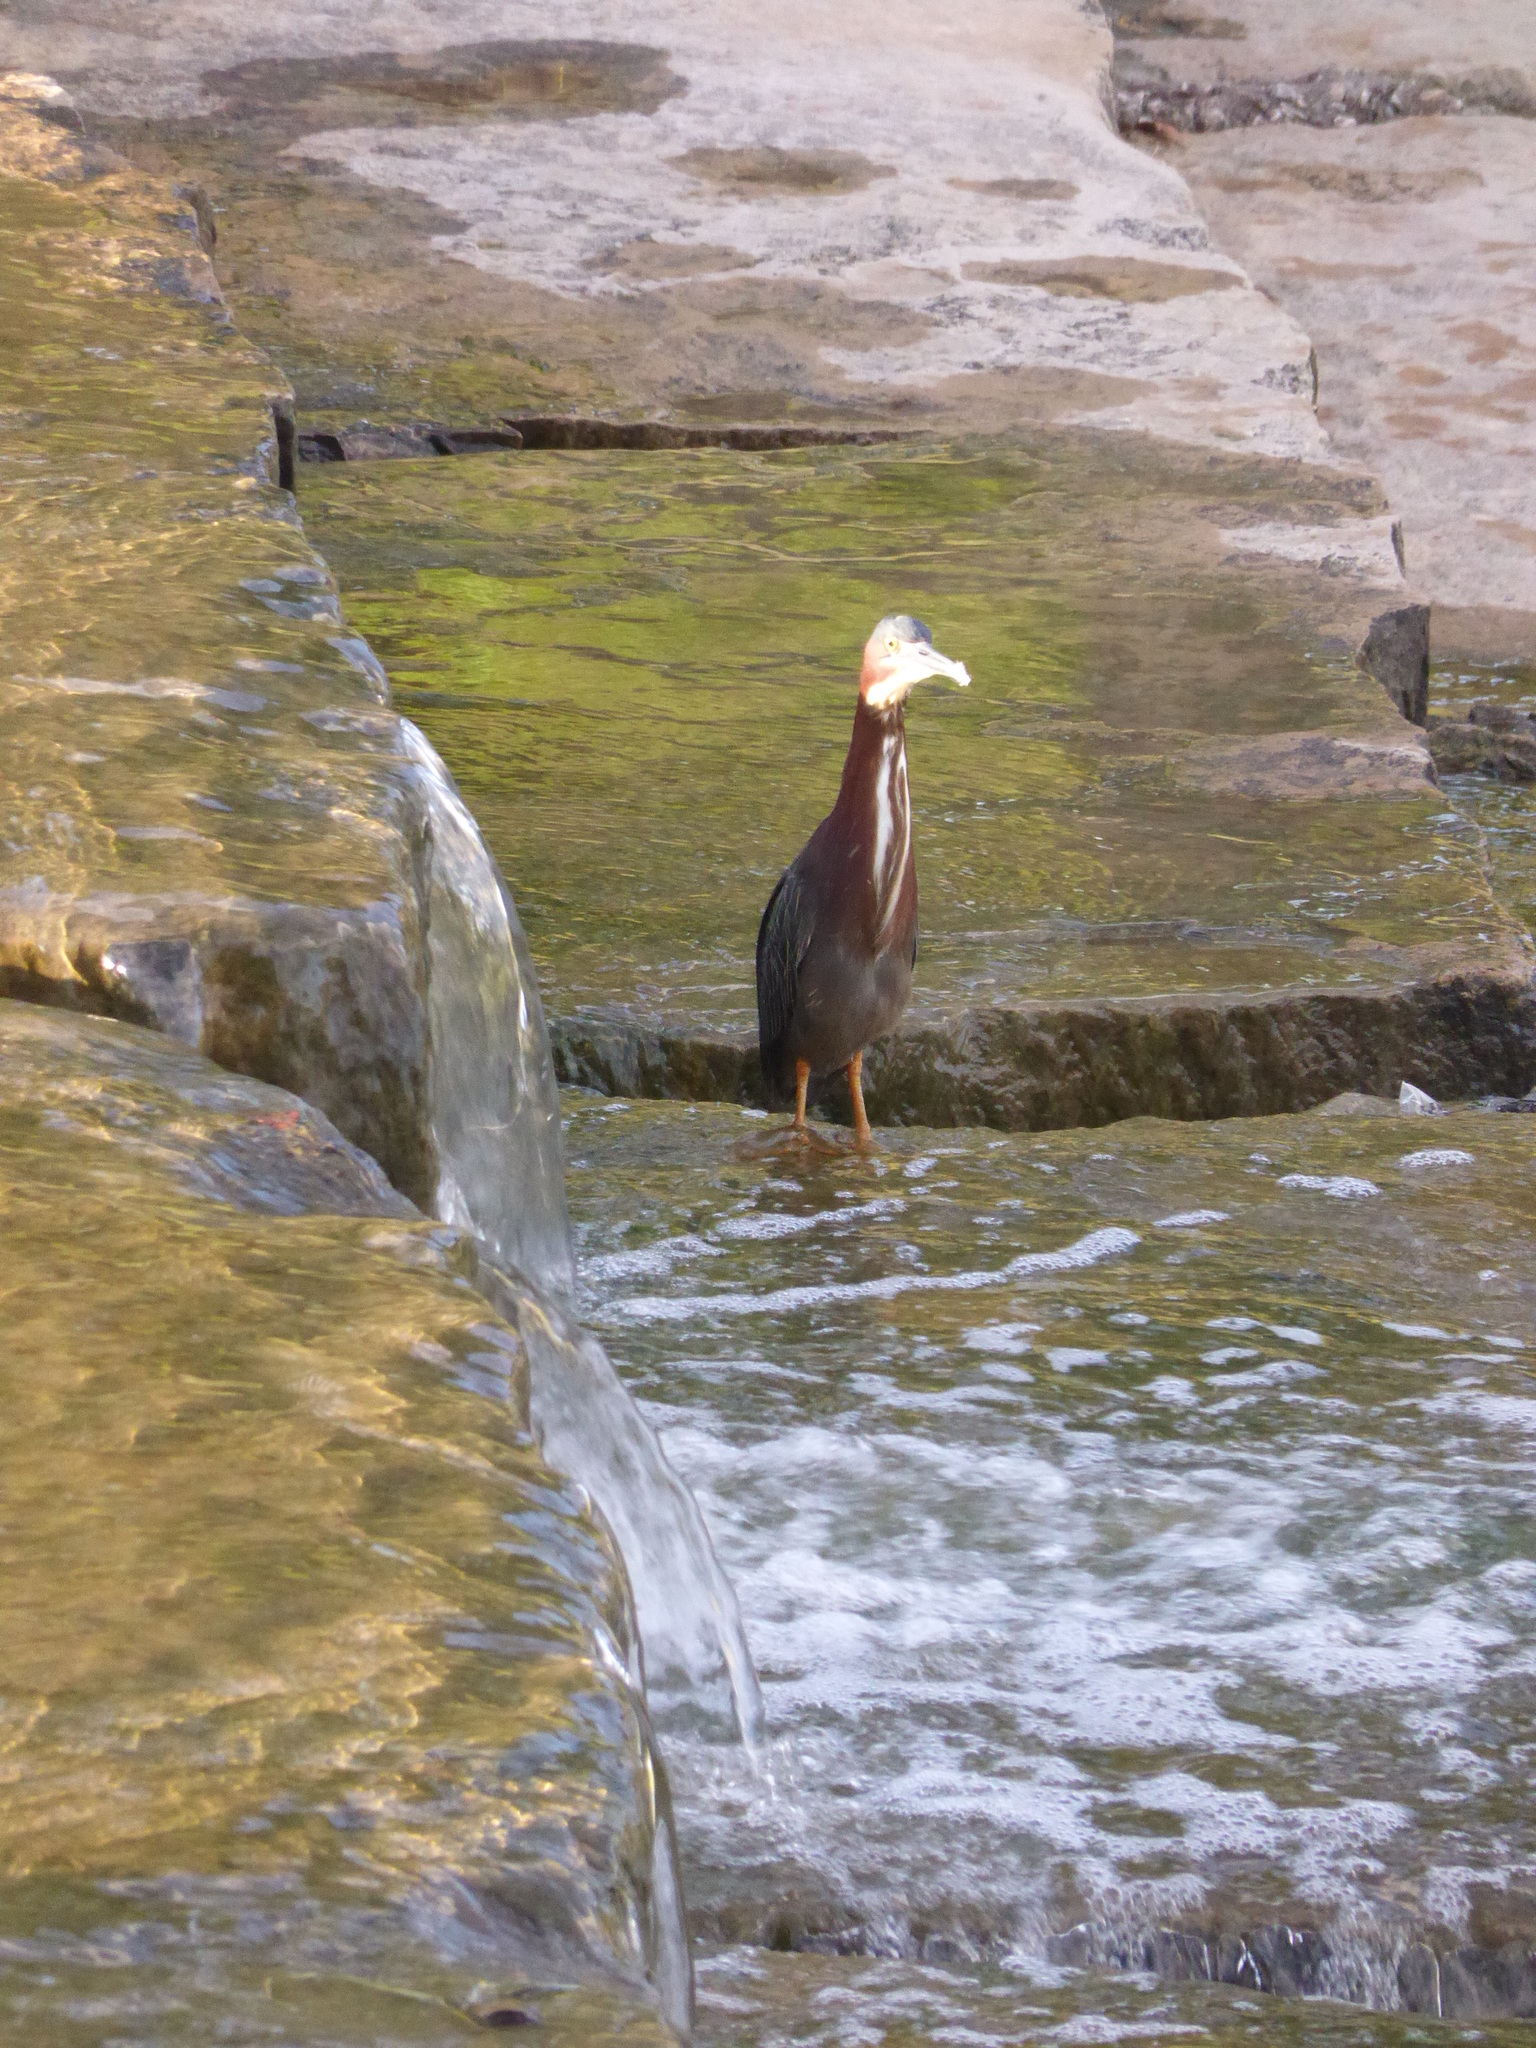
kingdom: Animalia
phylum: Chordata
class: Aves
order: Pelecaniformes
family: Ardeidae
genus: Butorides
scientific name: Butorides virescens
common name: Green heron
